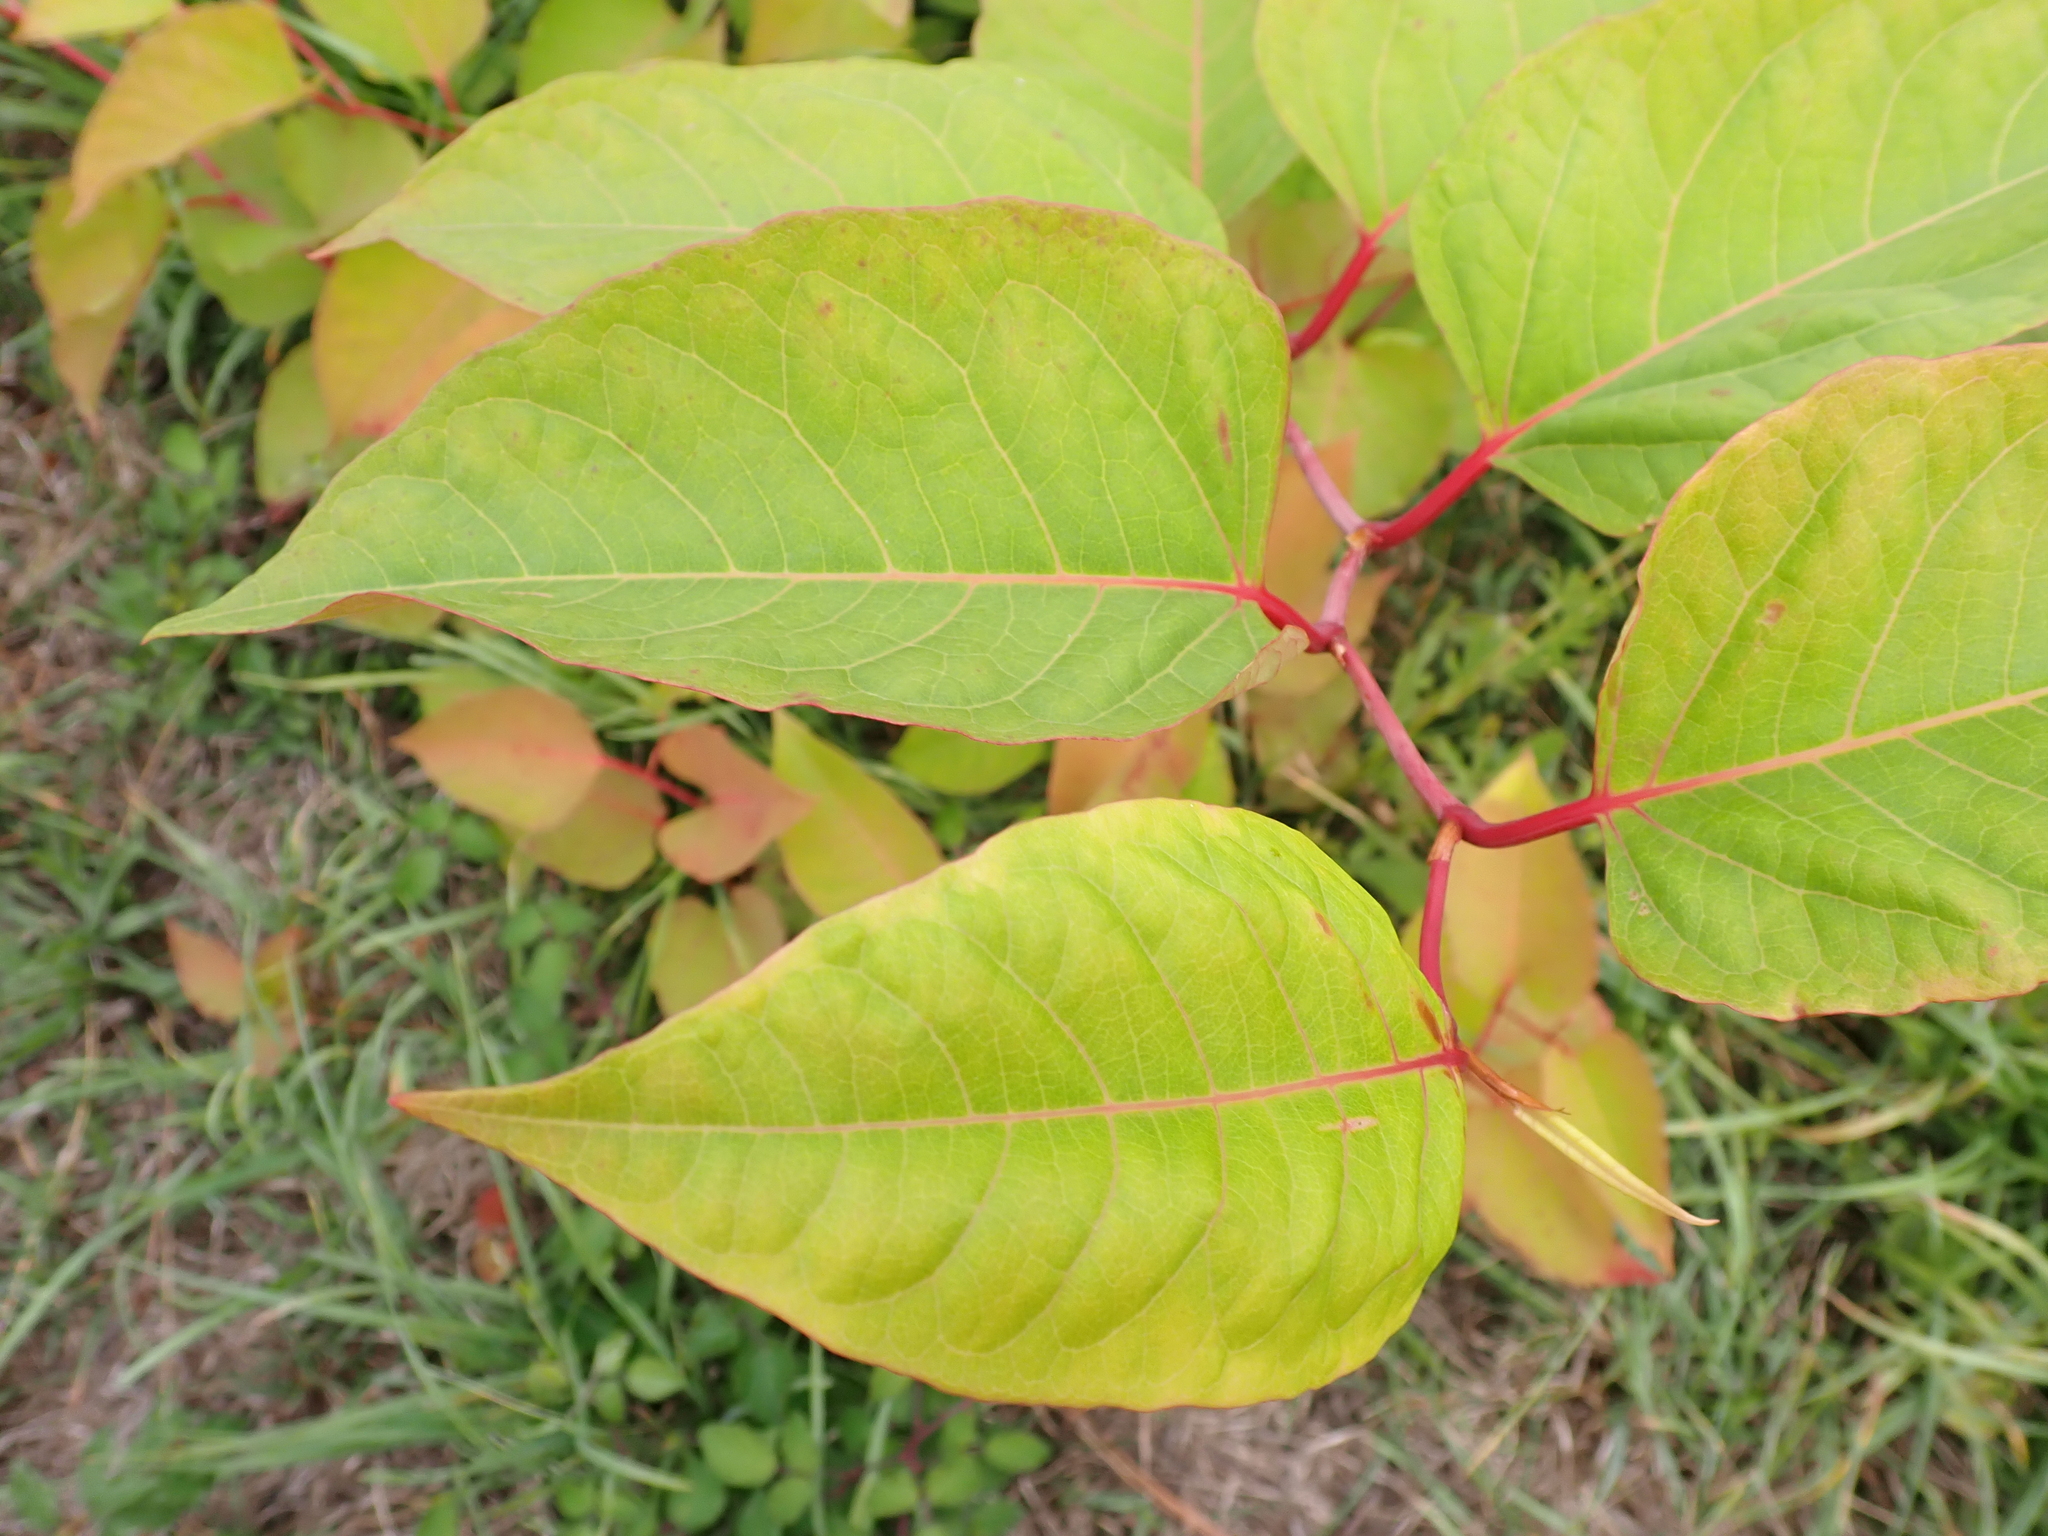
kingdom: Plantae
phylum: Tracheophyta
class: Magnoliopsida
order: Caryophyllales
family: Polygonaceae
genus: Reynoutria
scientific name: Reynoutria japonica
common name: Japanese knotweed
